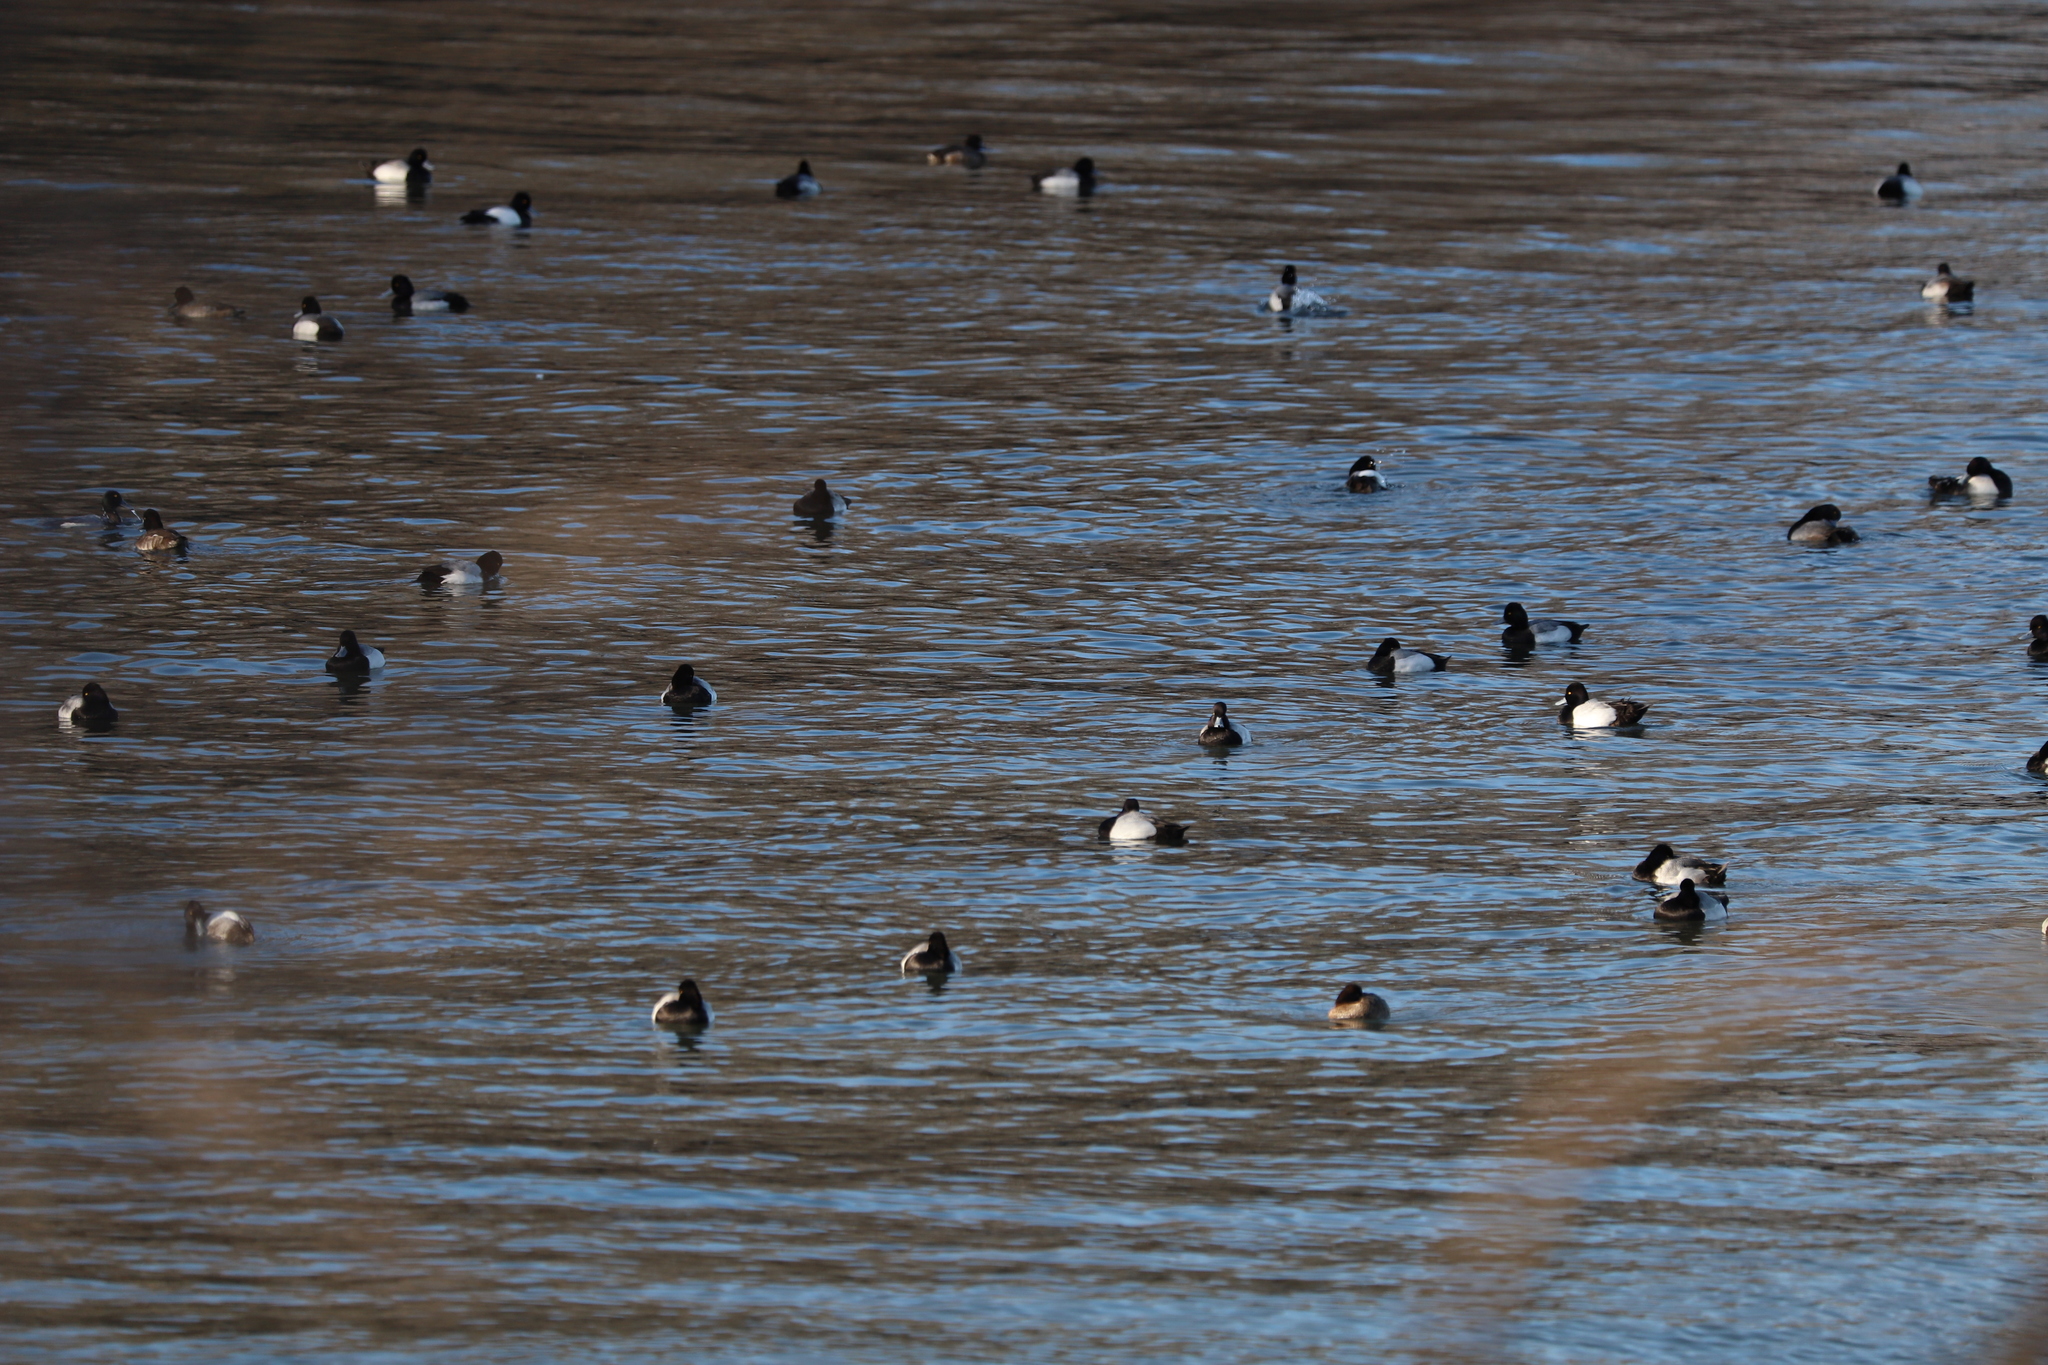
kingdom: Animalia
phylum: Chordata
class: Aves
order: Anseriformes
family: Anatidae
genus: Aythya
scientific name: Aythya affinis
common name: Lesser scaup
